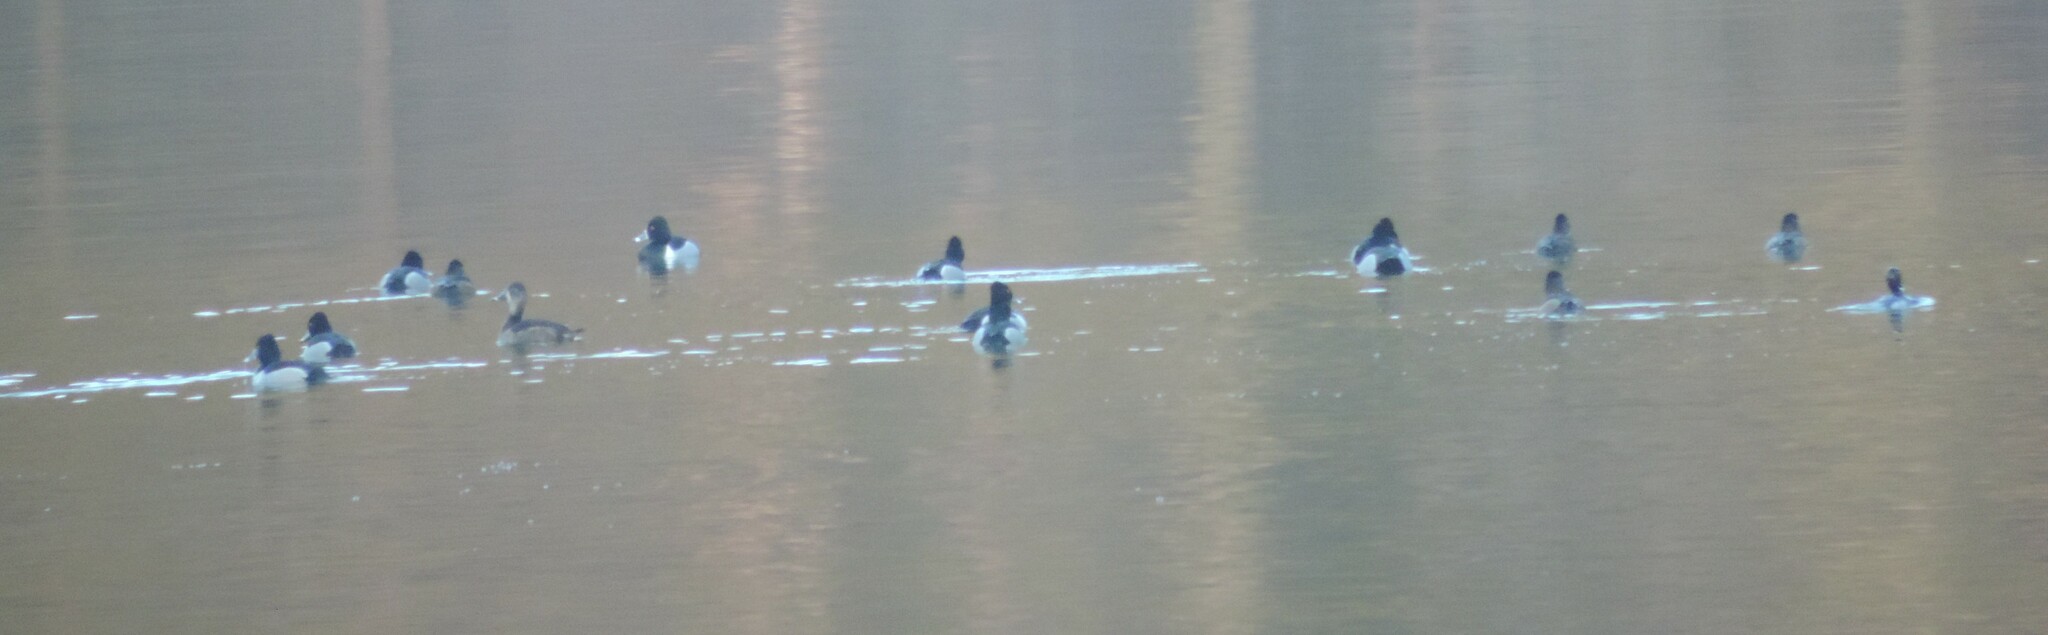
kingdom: Animalia
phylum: Chordata
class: Aves
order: Anseriformes
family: Anatidae
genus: Aythya
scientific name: Aythya collaris
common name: Ring-necked duck
